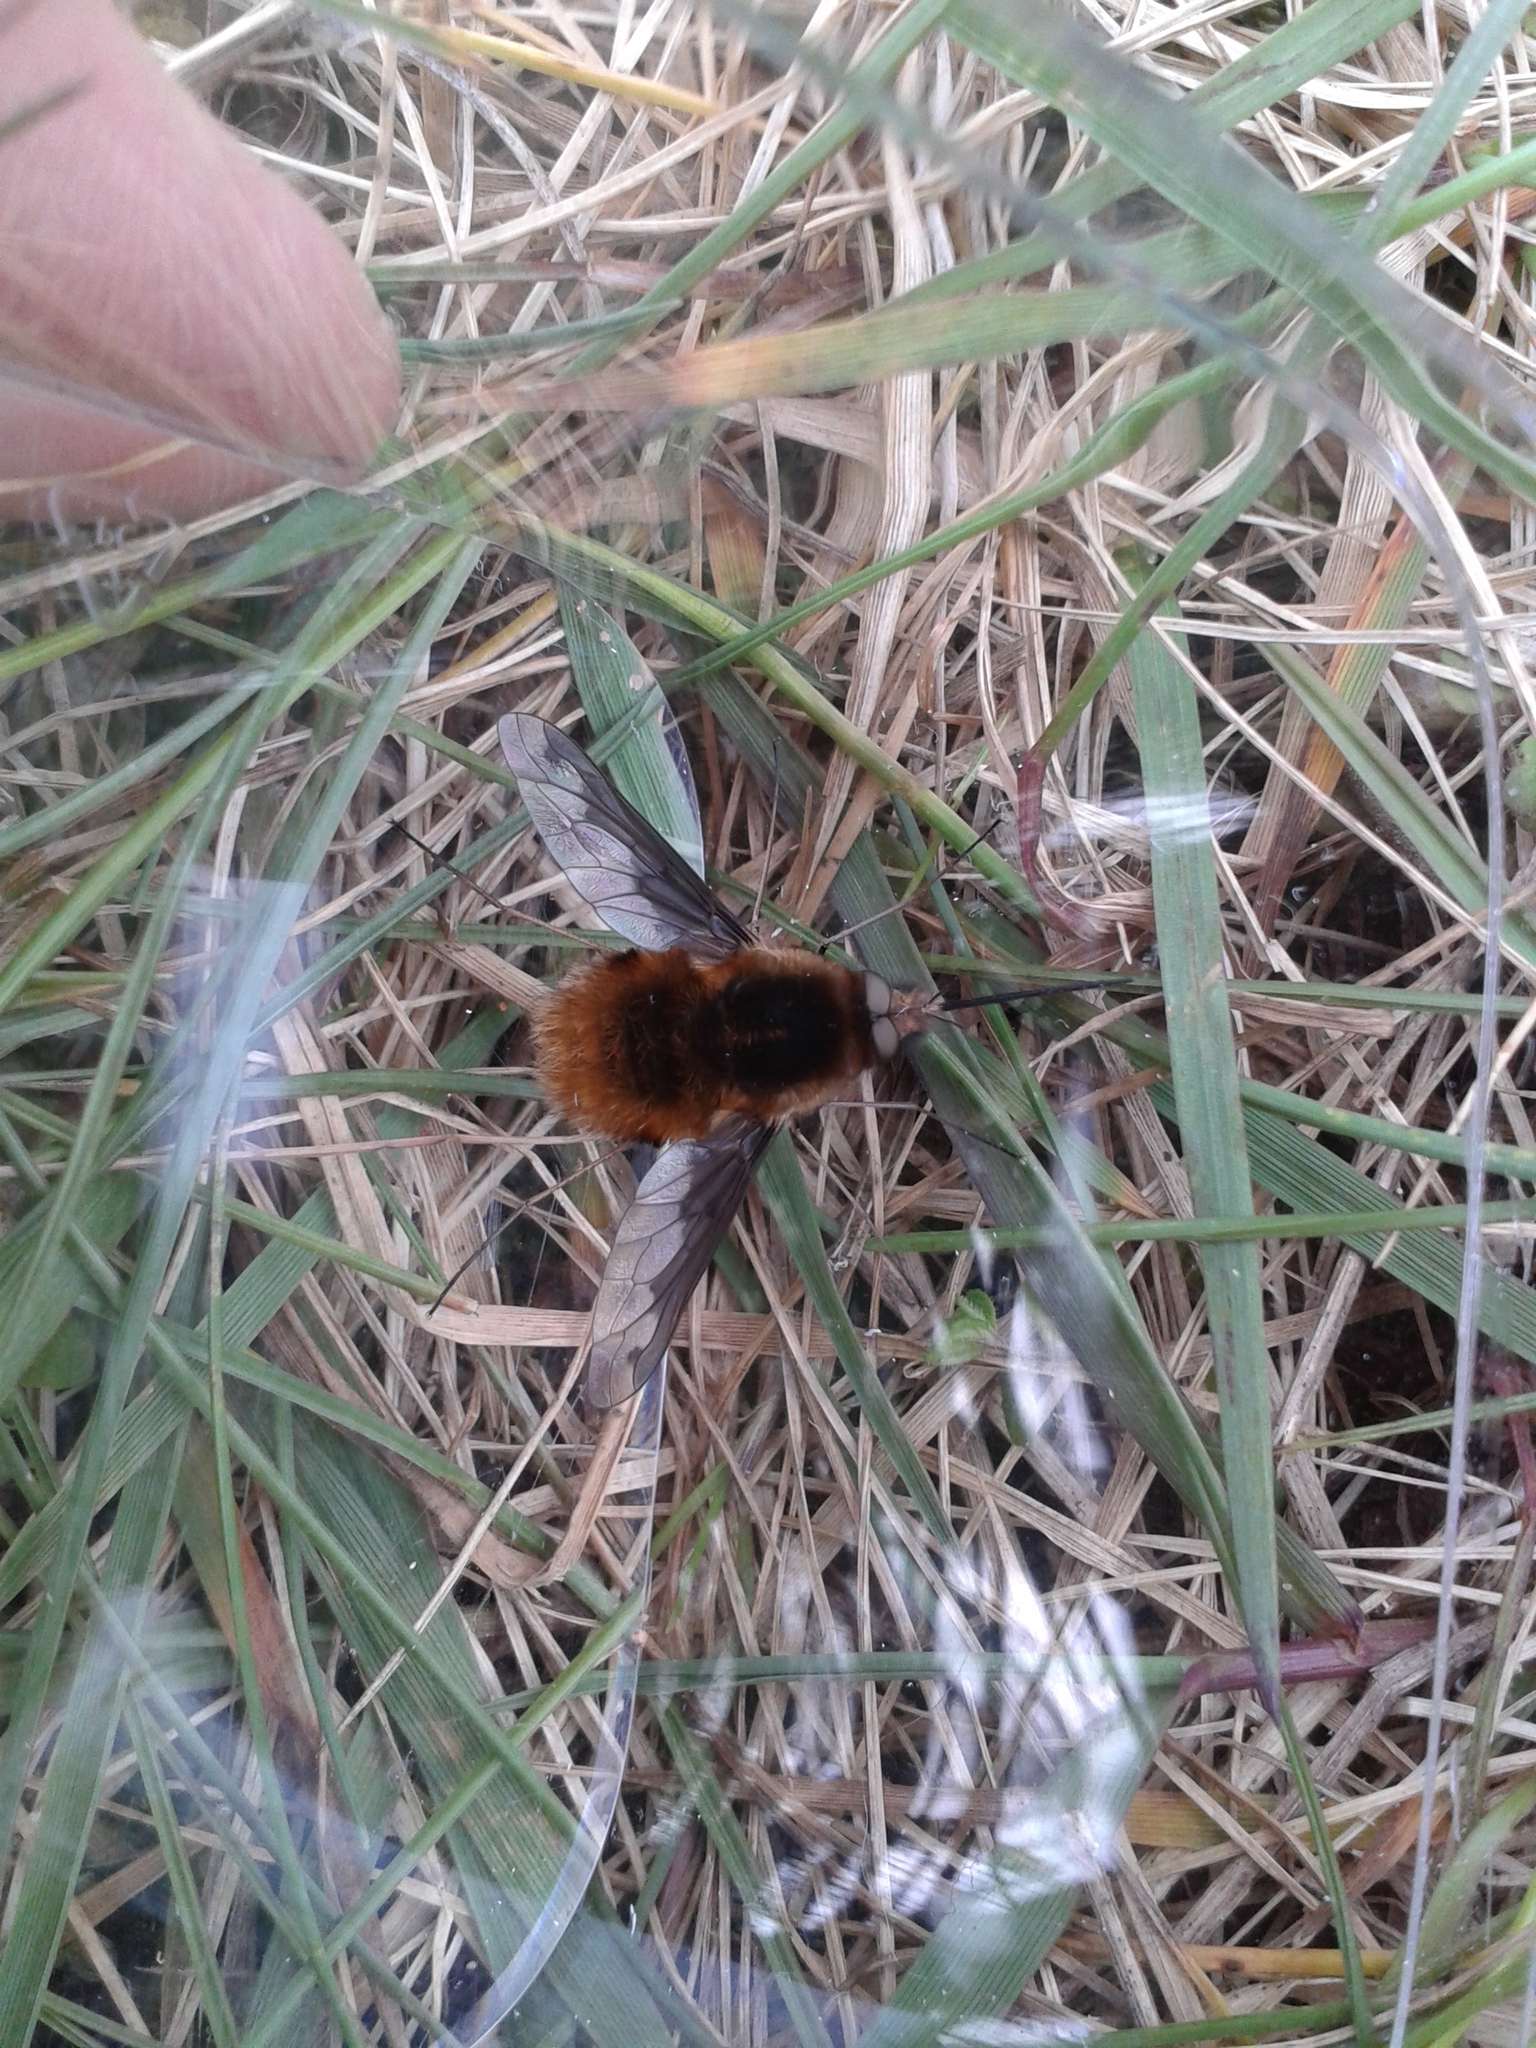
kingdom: Animalia
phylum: Arthropoda
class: Insecta
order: Diptera
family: Bombyliidae
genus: Bombylius
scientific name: Bombylius major
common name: Bee fly
